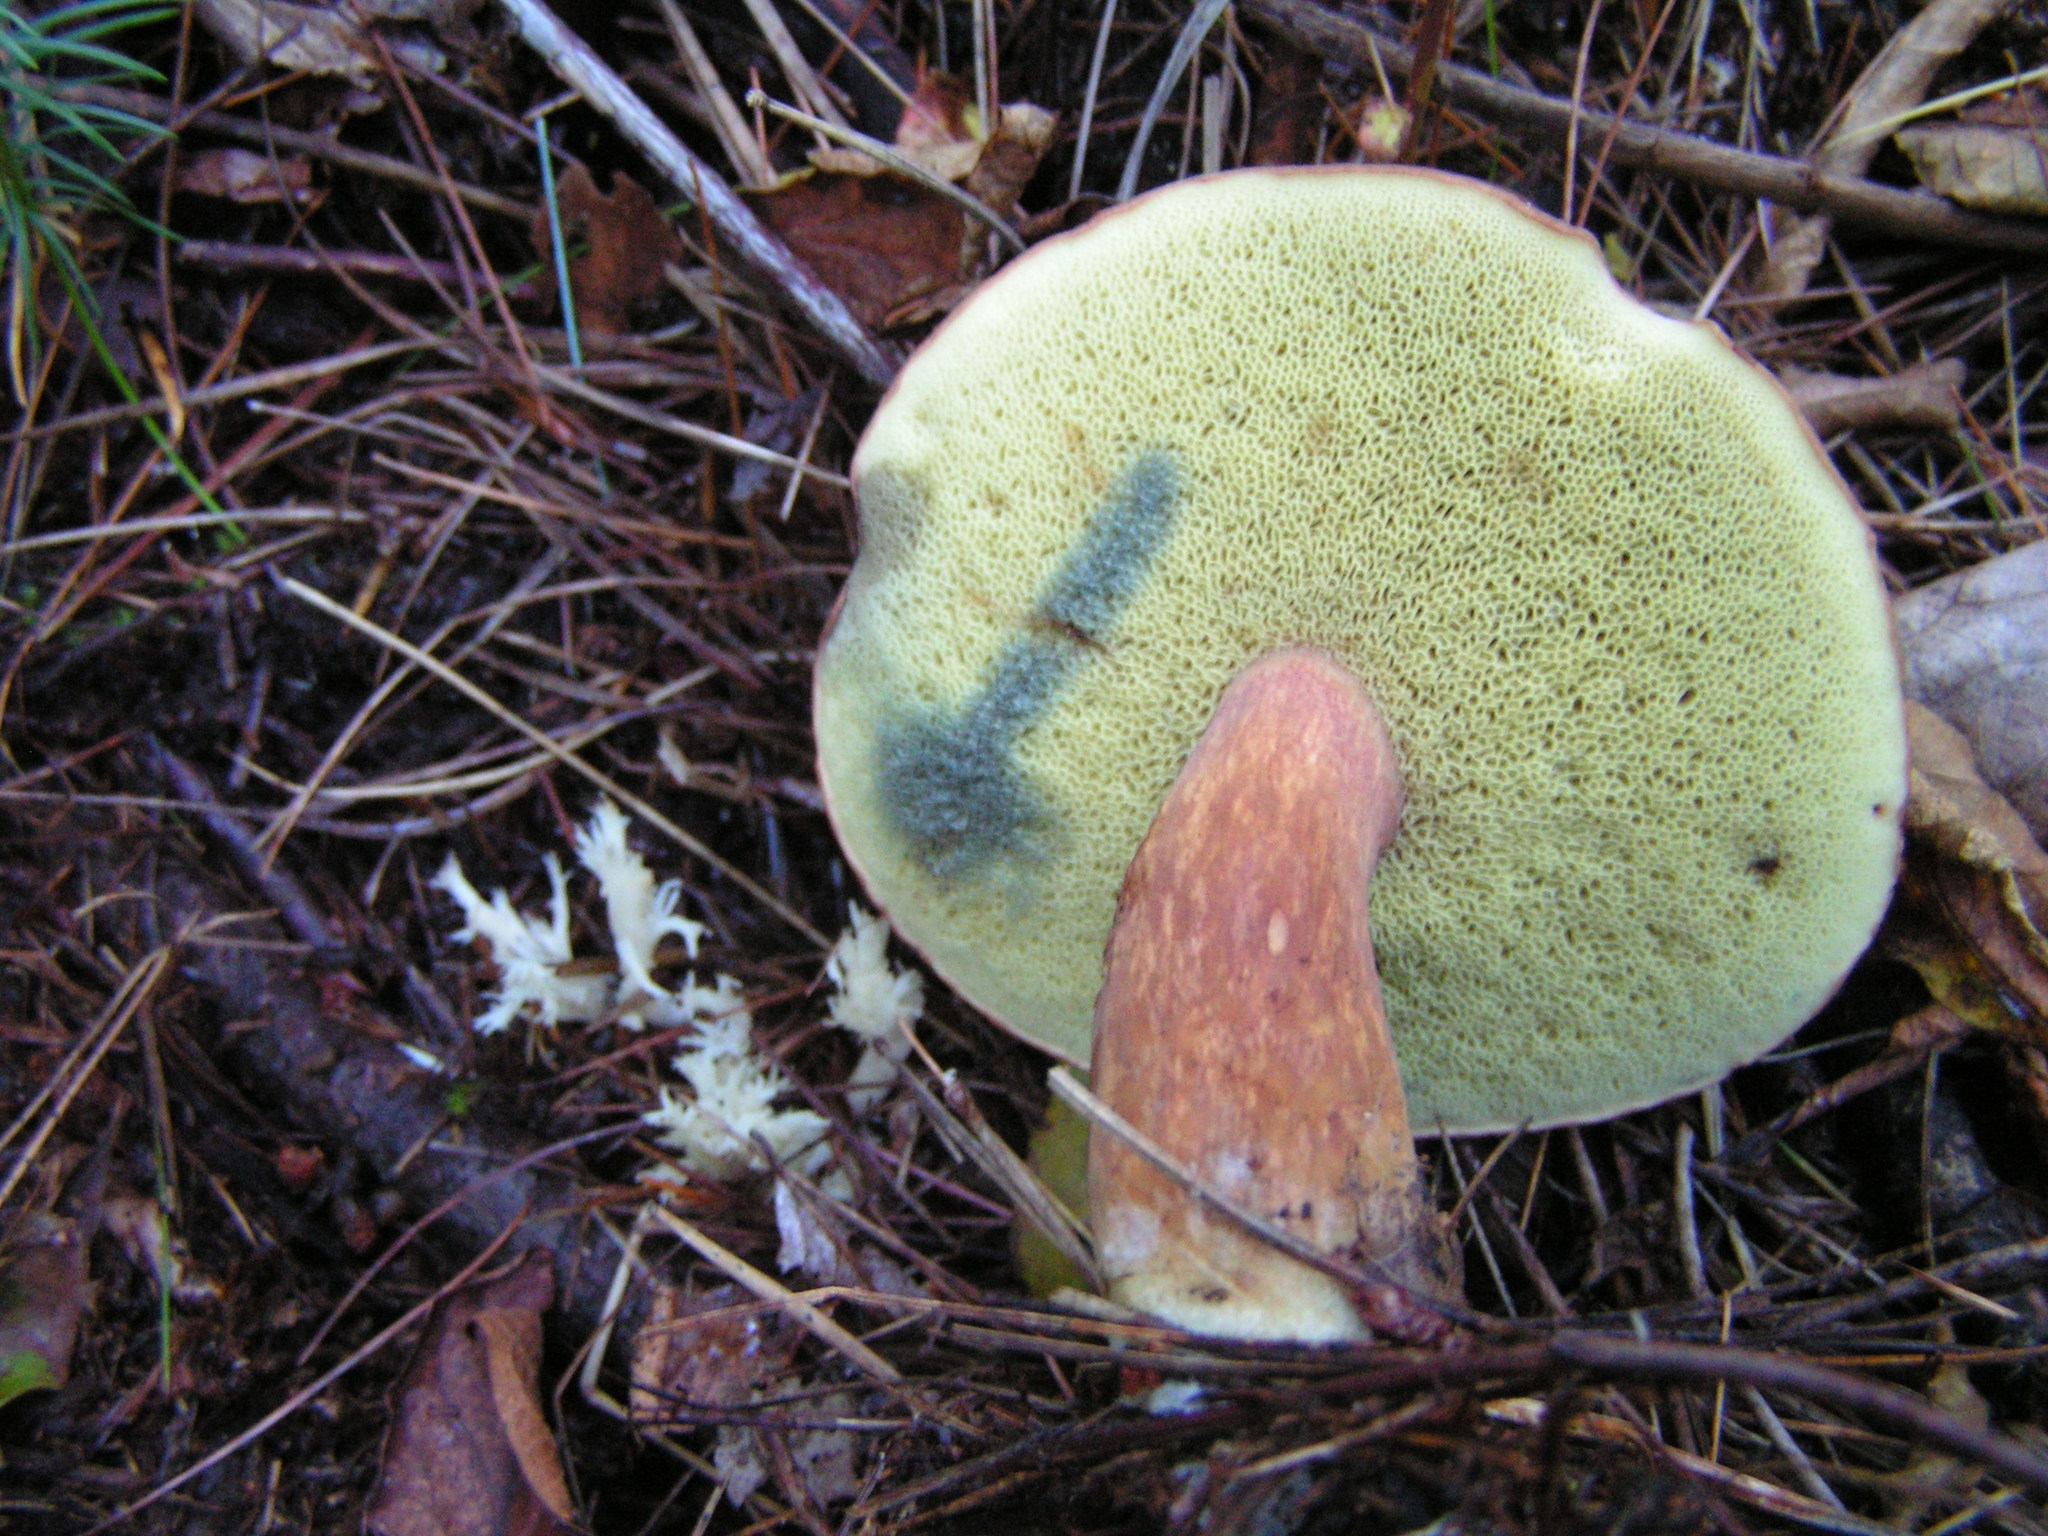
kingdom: Fungi
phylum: Basidiomycota
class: Agaricomycetes
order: Boletales
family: Boletaceae
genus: Imleria
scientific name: Imleria badia
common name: Bay bolete
